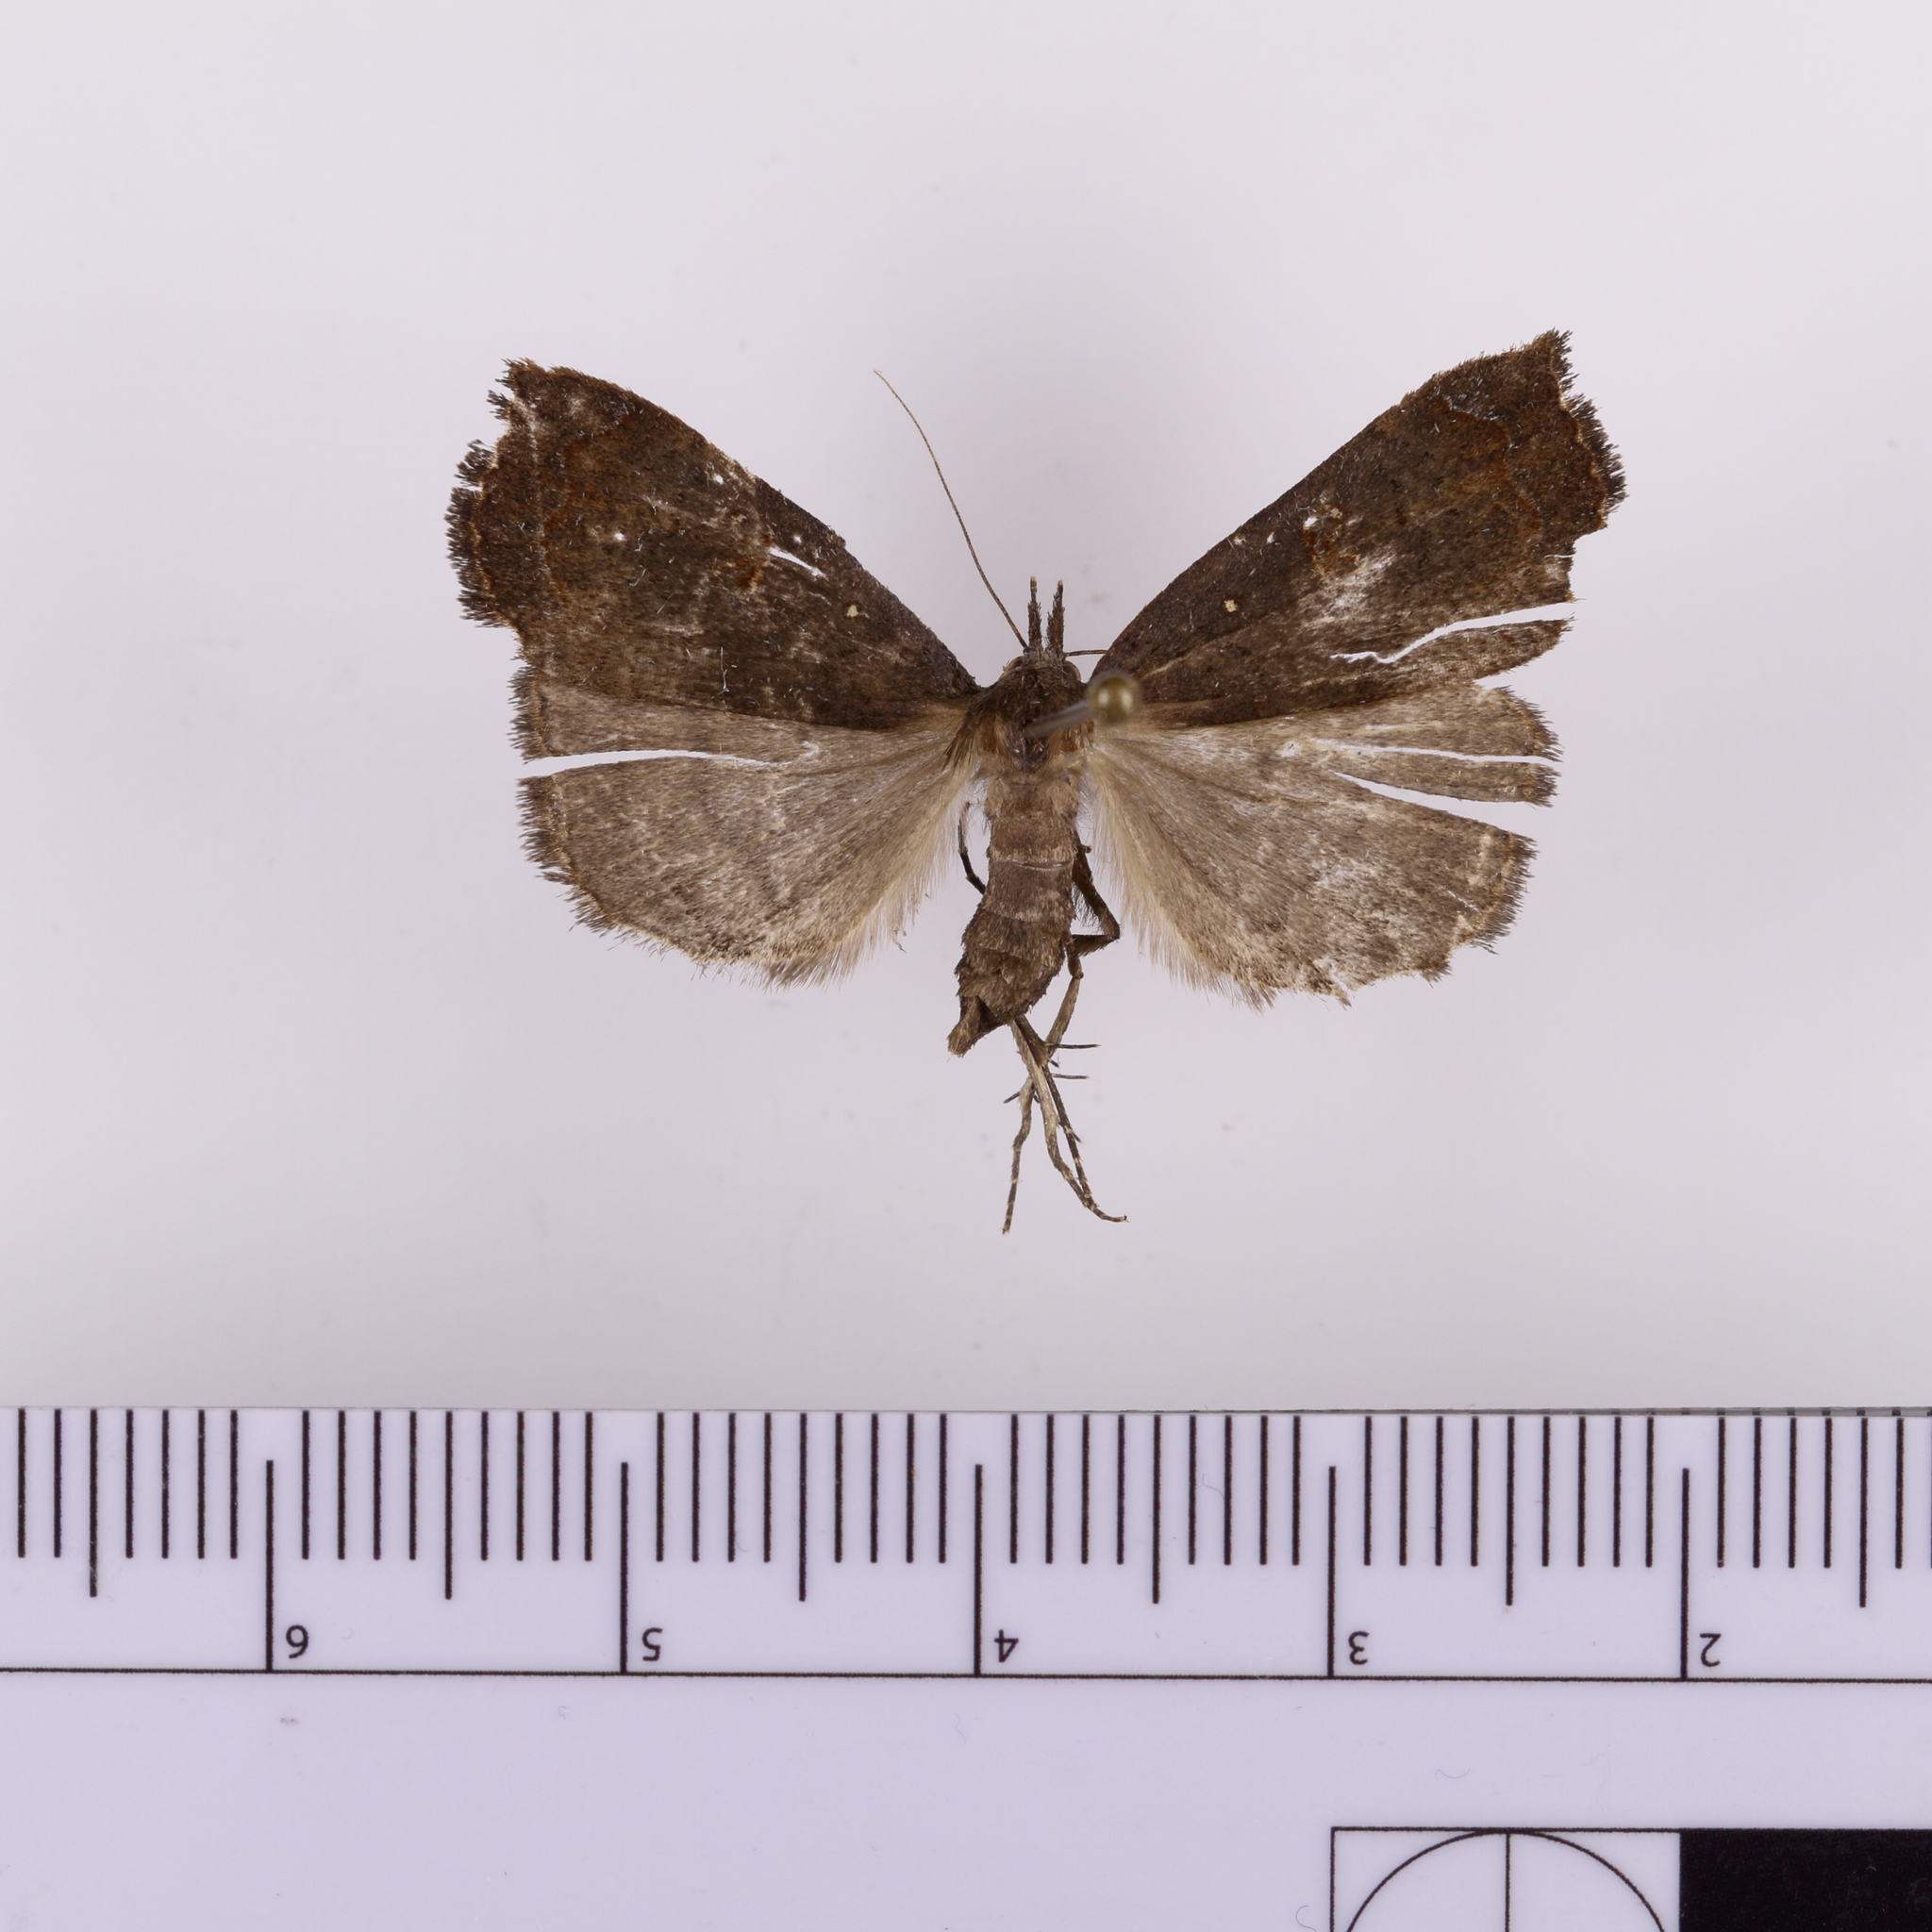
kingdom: Animalia
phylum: Arthropoda
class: Insecta
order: Lepidoptera
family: Erebidae
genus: Rhapsa
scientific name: Rhapsa scotosialis
